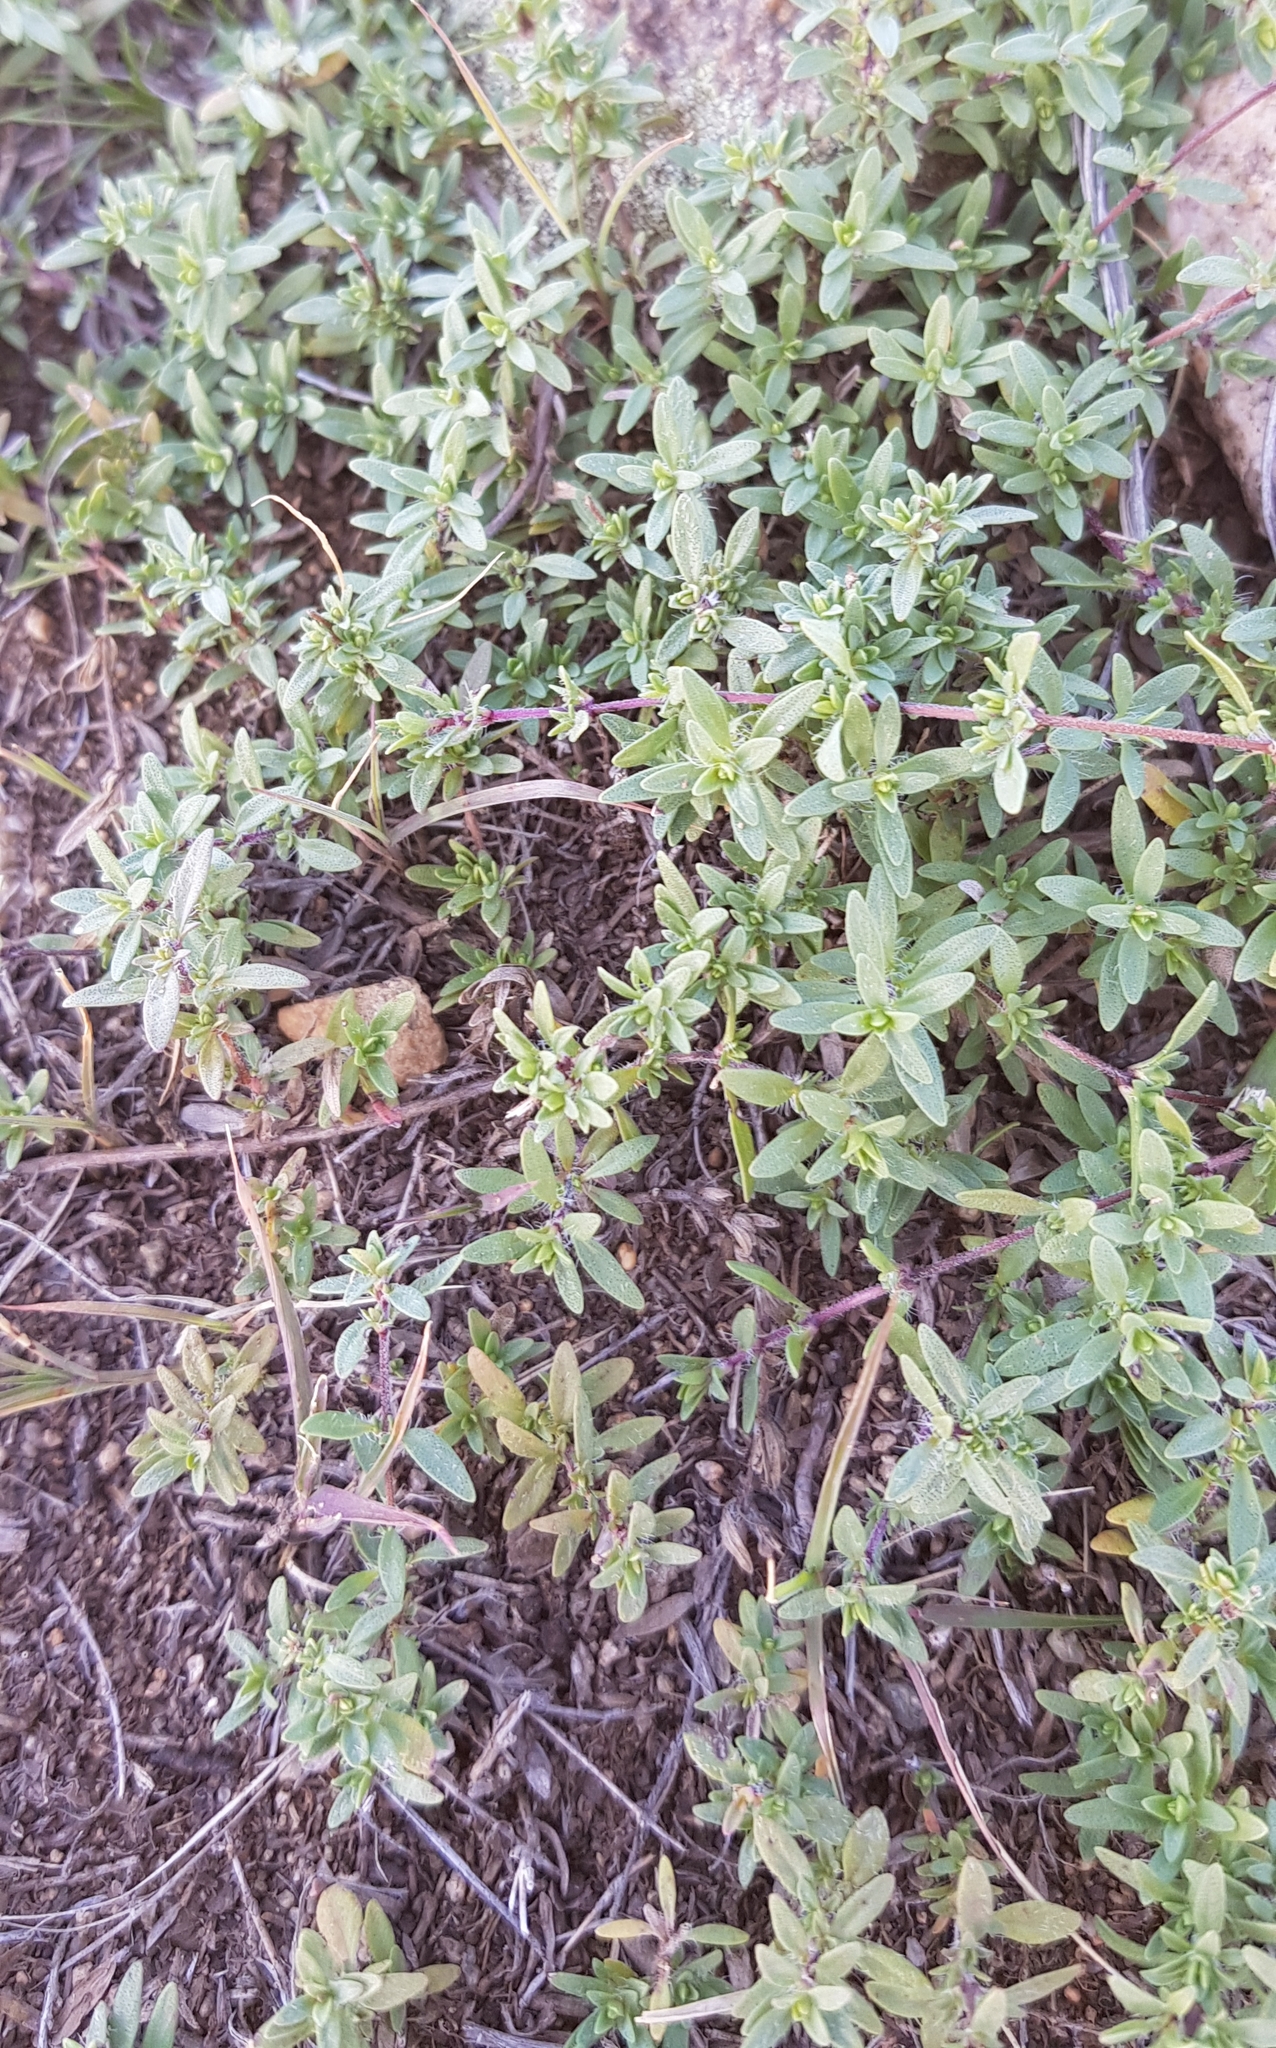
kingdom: Plantae
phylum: Tracheophyta
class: Magnoliopsida
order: Lamiales
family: Lamiaceae
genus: Thymus
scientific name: Thymus baicalensis
